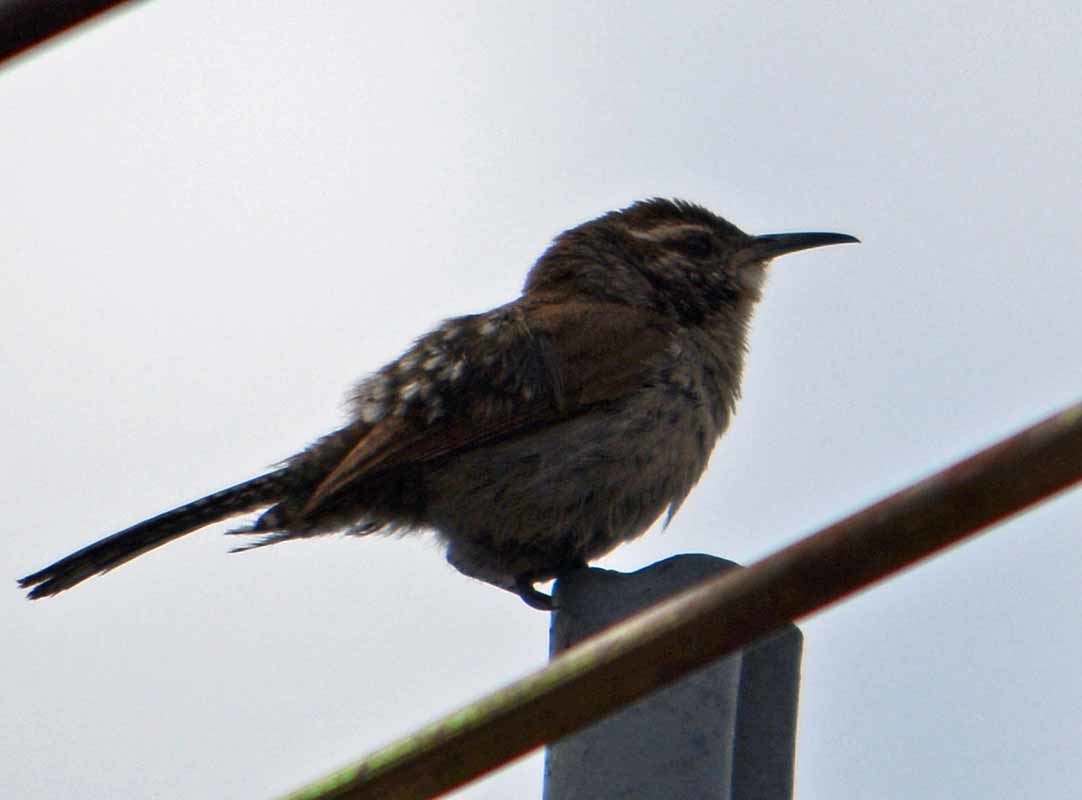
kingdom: Animalia
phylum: Chordata
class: Aves
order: Passeriformes
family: Troglodytidae
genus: Thryomanes
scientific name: Thryomanes bewickii
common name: Bewick's wren
